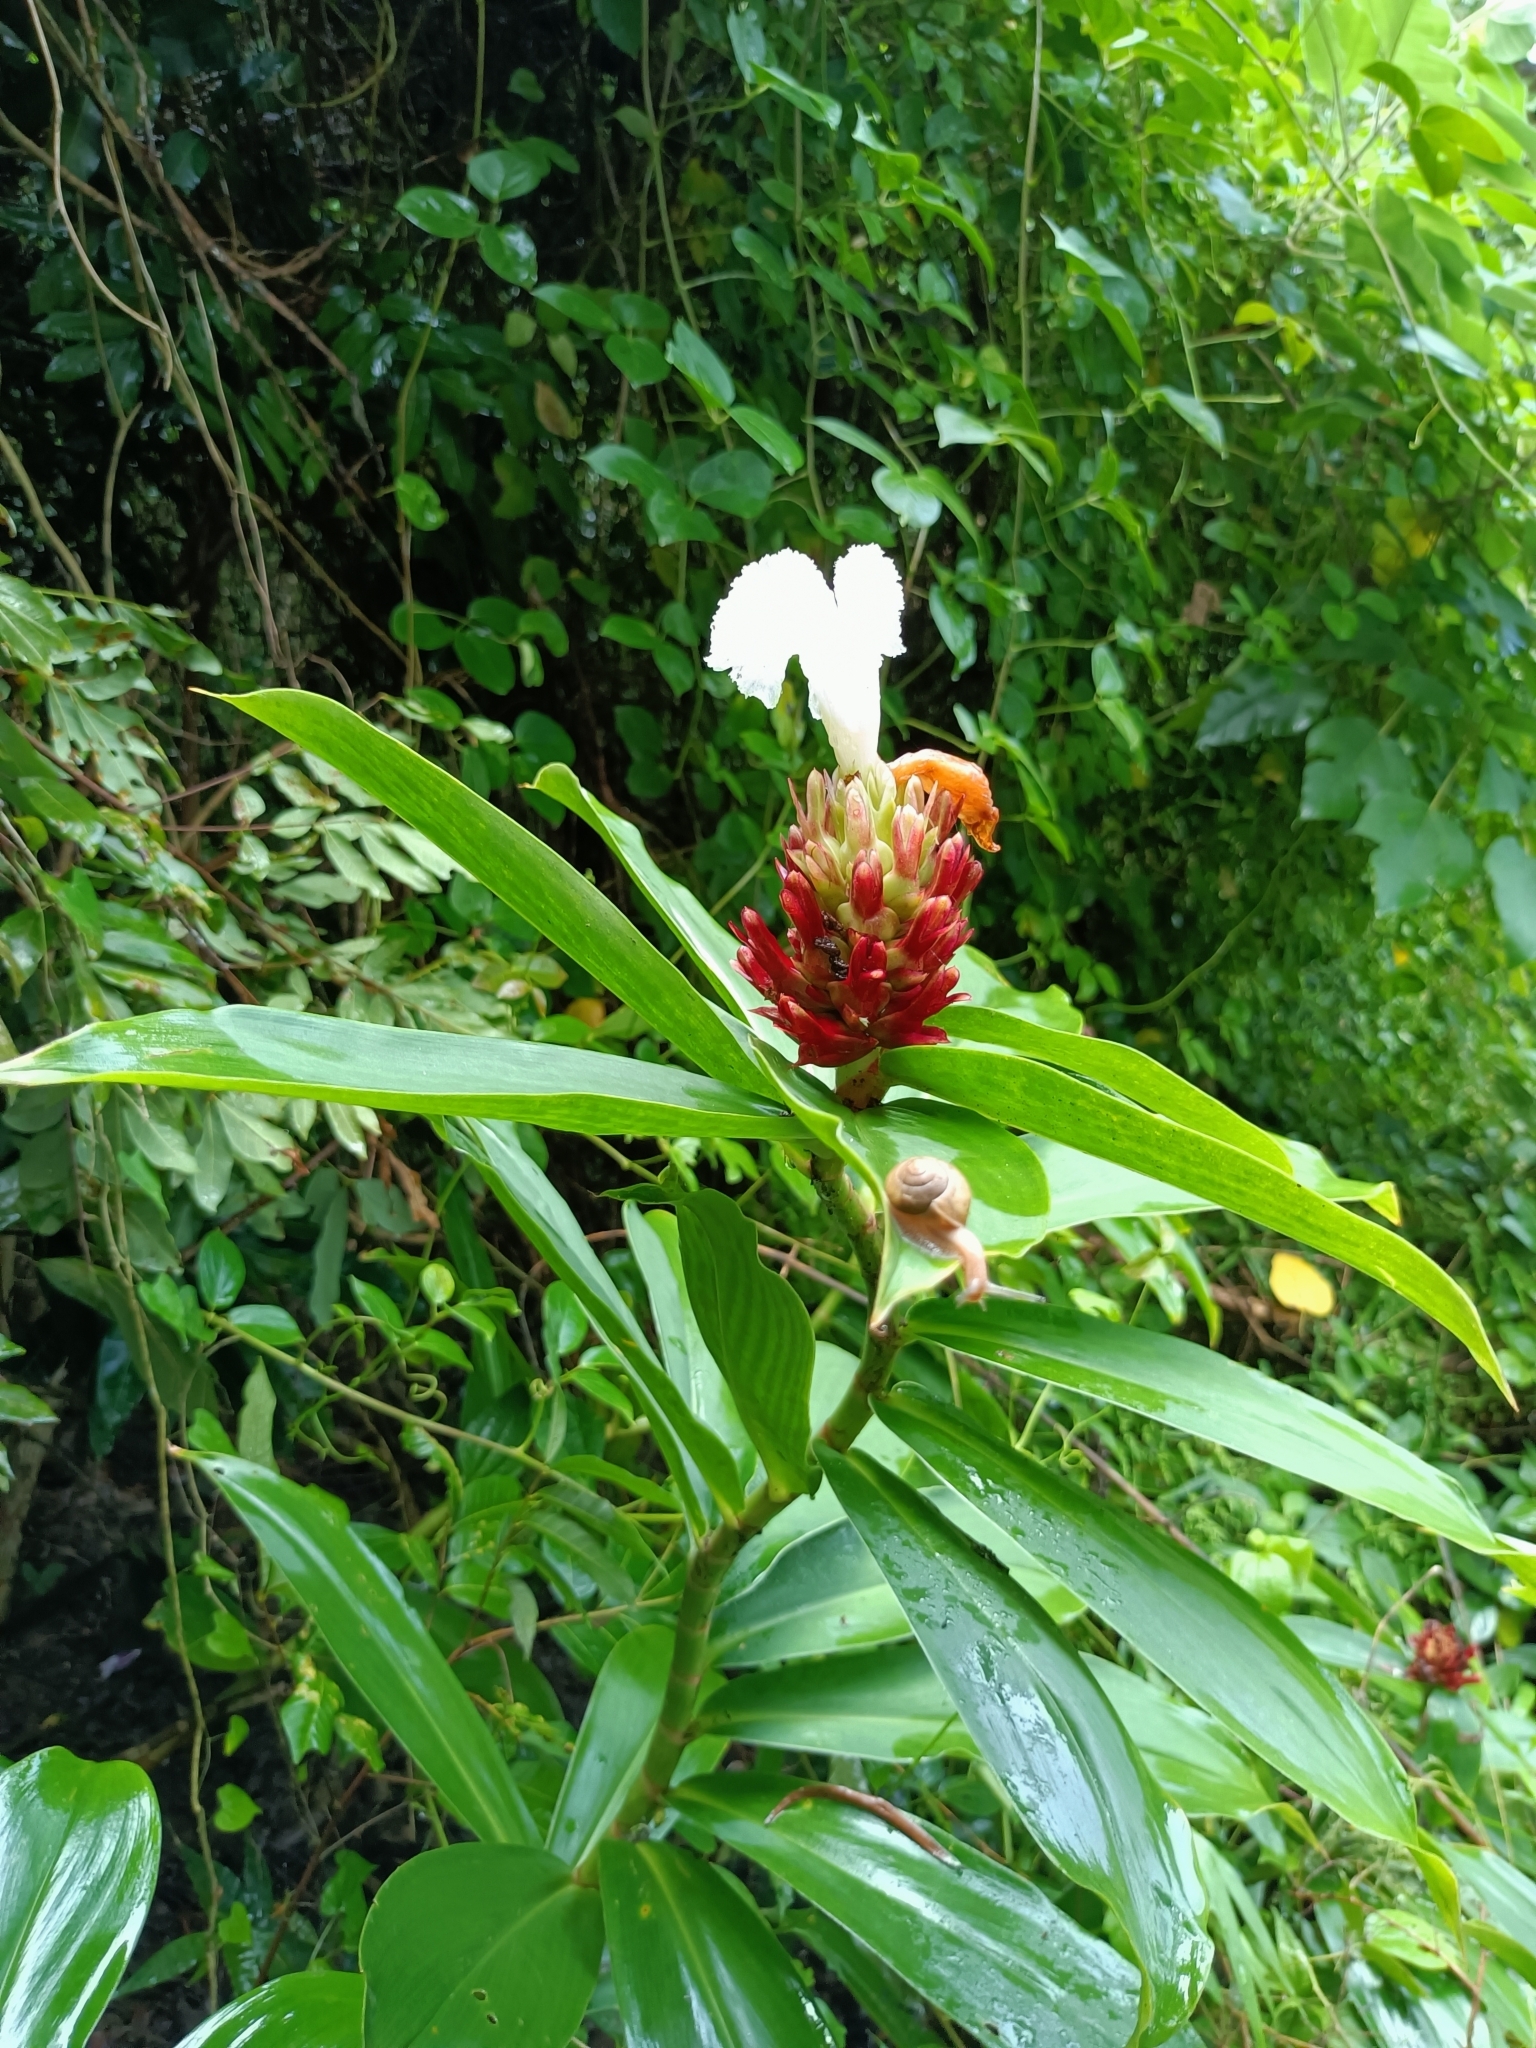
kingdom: Plantae
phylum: Tracheophyta
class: Liliopsida
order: Zingiberales
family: Costaceae
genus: Hellenia
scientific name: Hellenia speciosa
